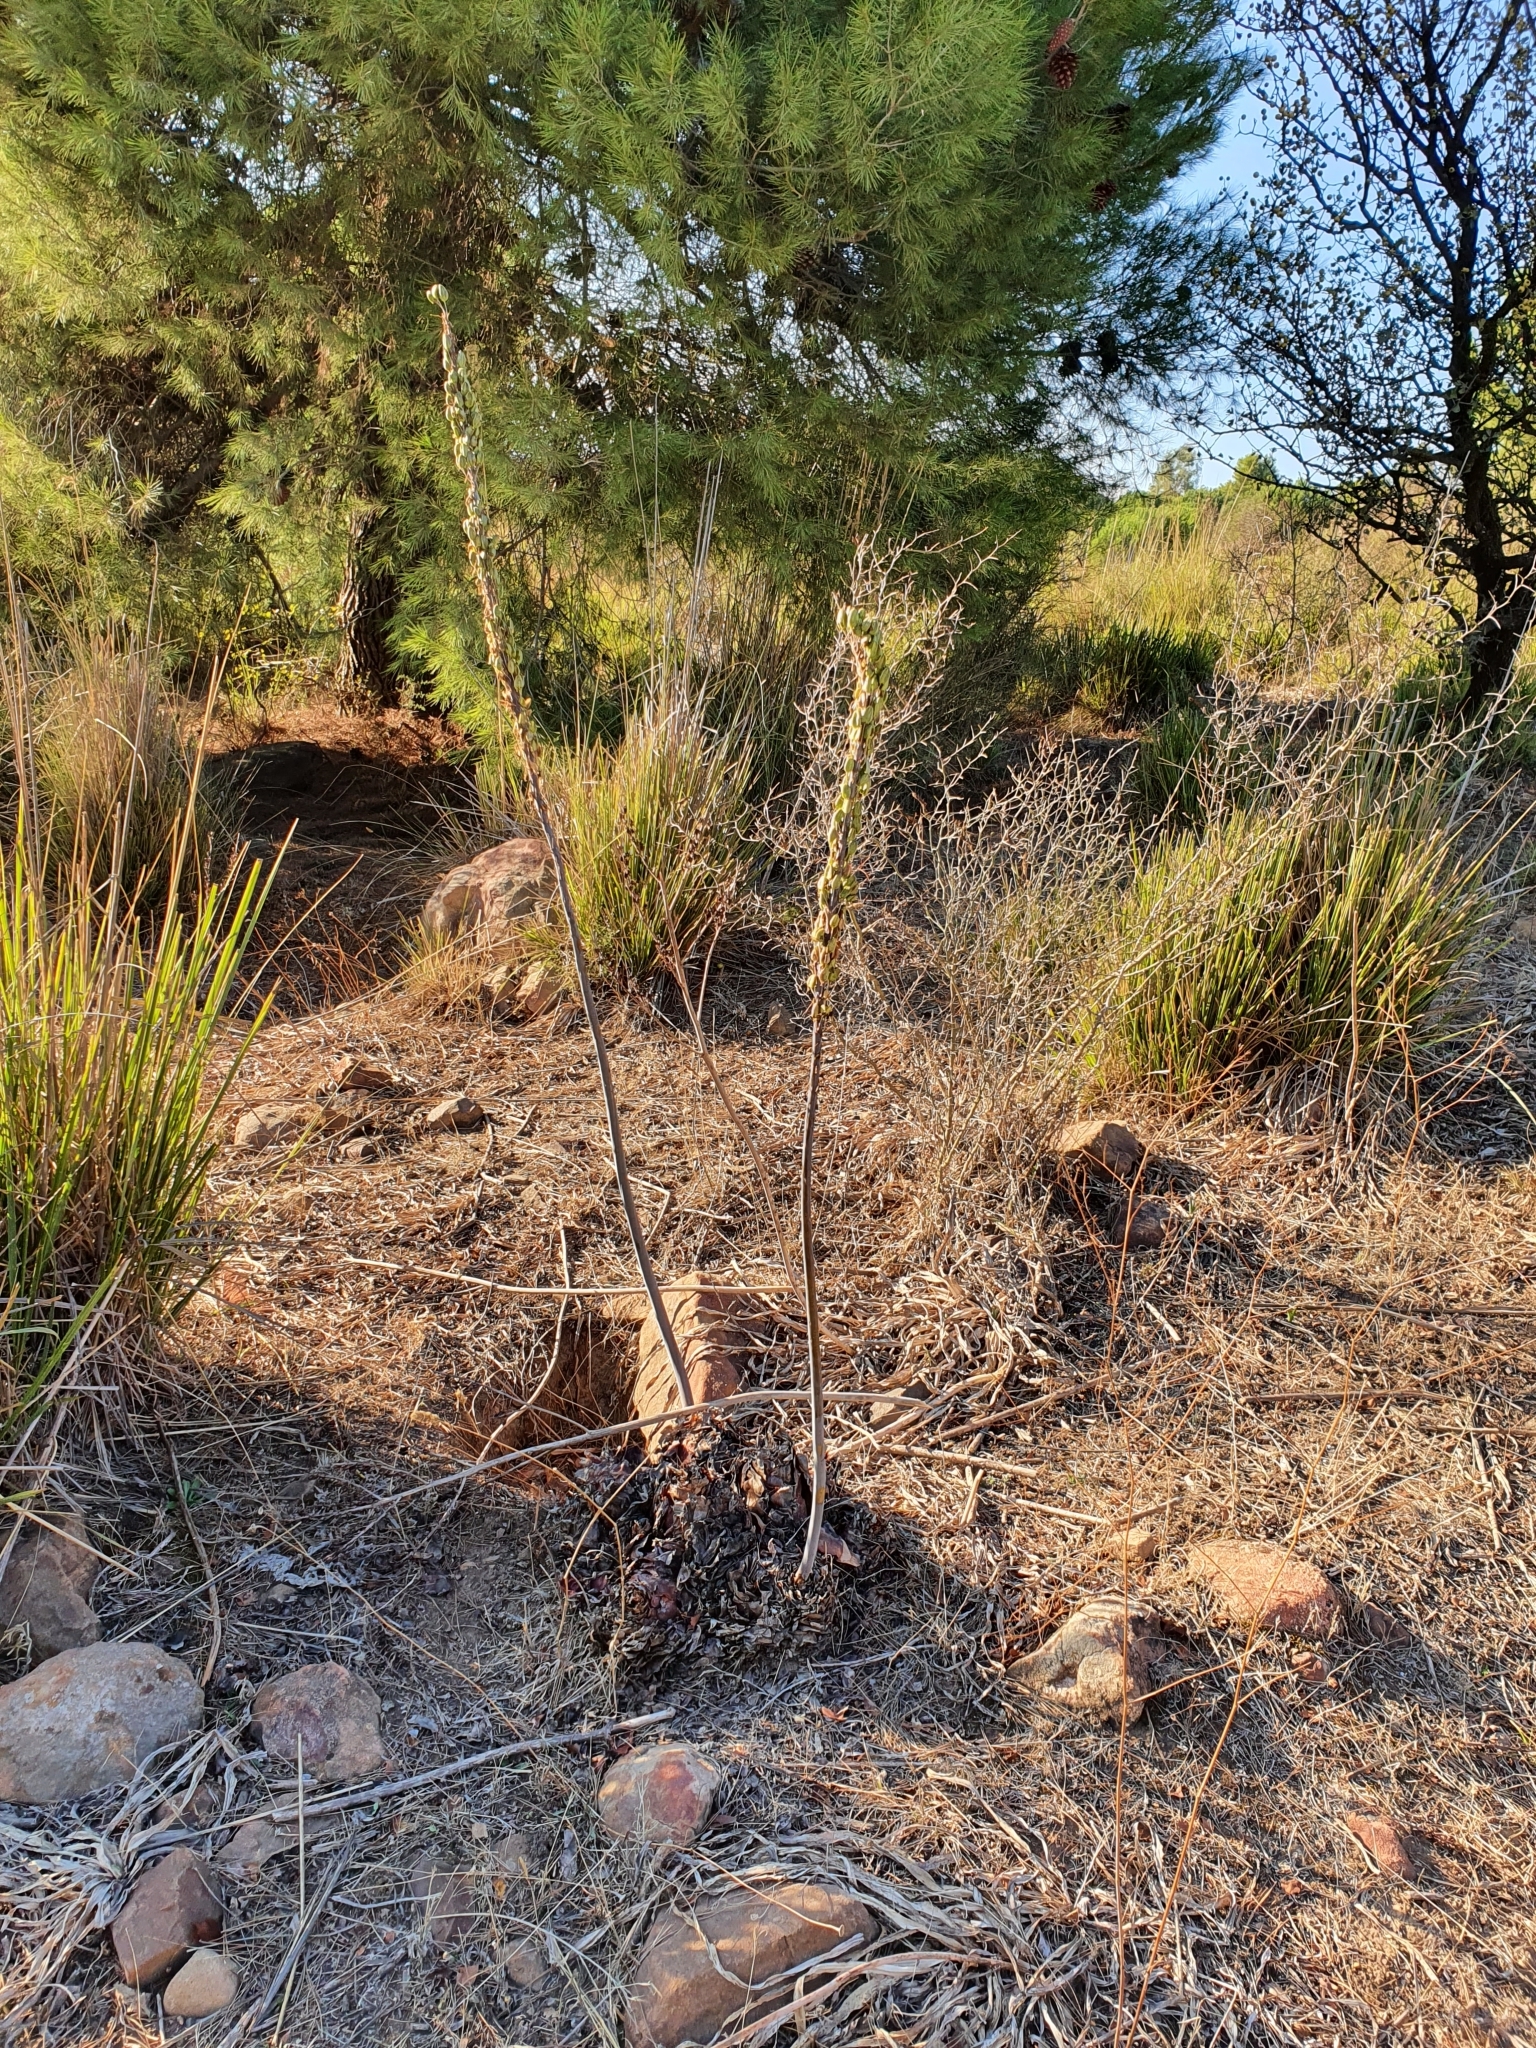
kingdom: Plantae
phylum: Tracheophyta
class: Liliopsida
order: Asparagales
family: Asparagaceae
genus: Drimia
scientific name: Drimia numidica
